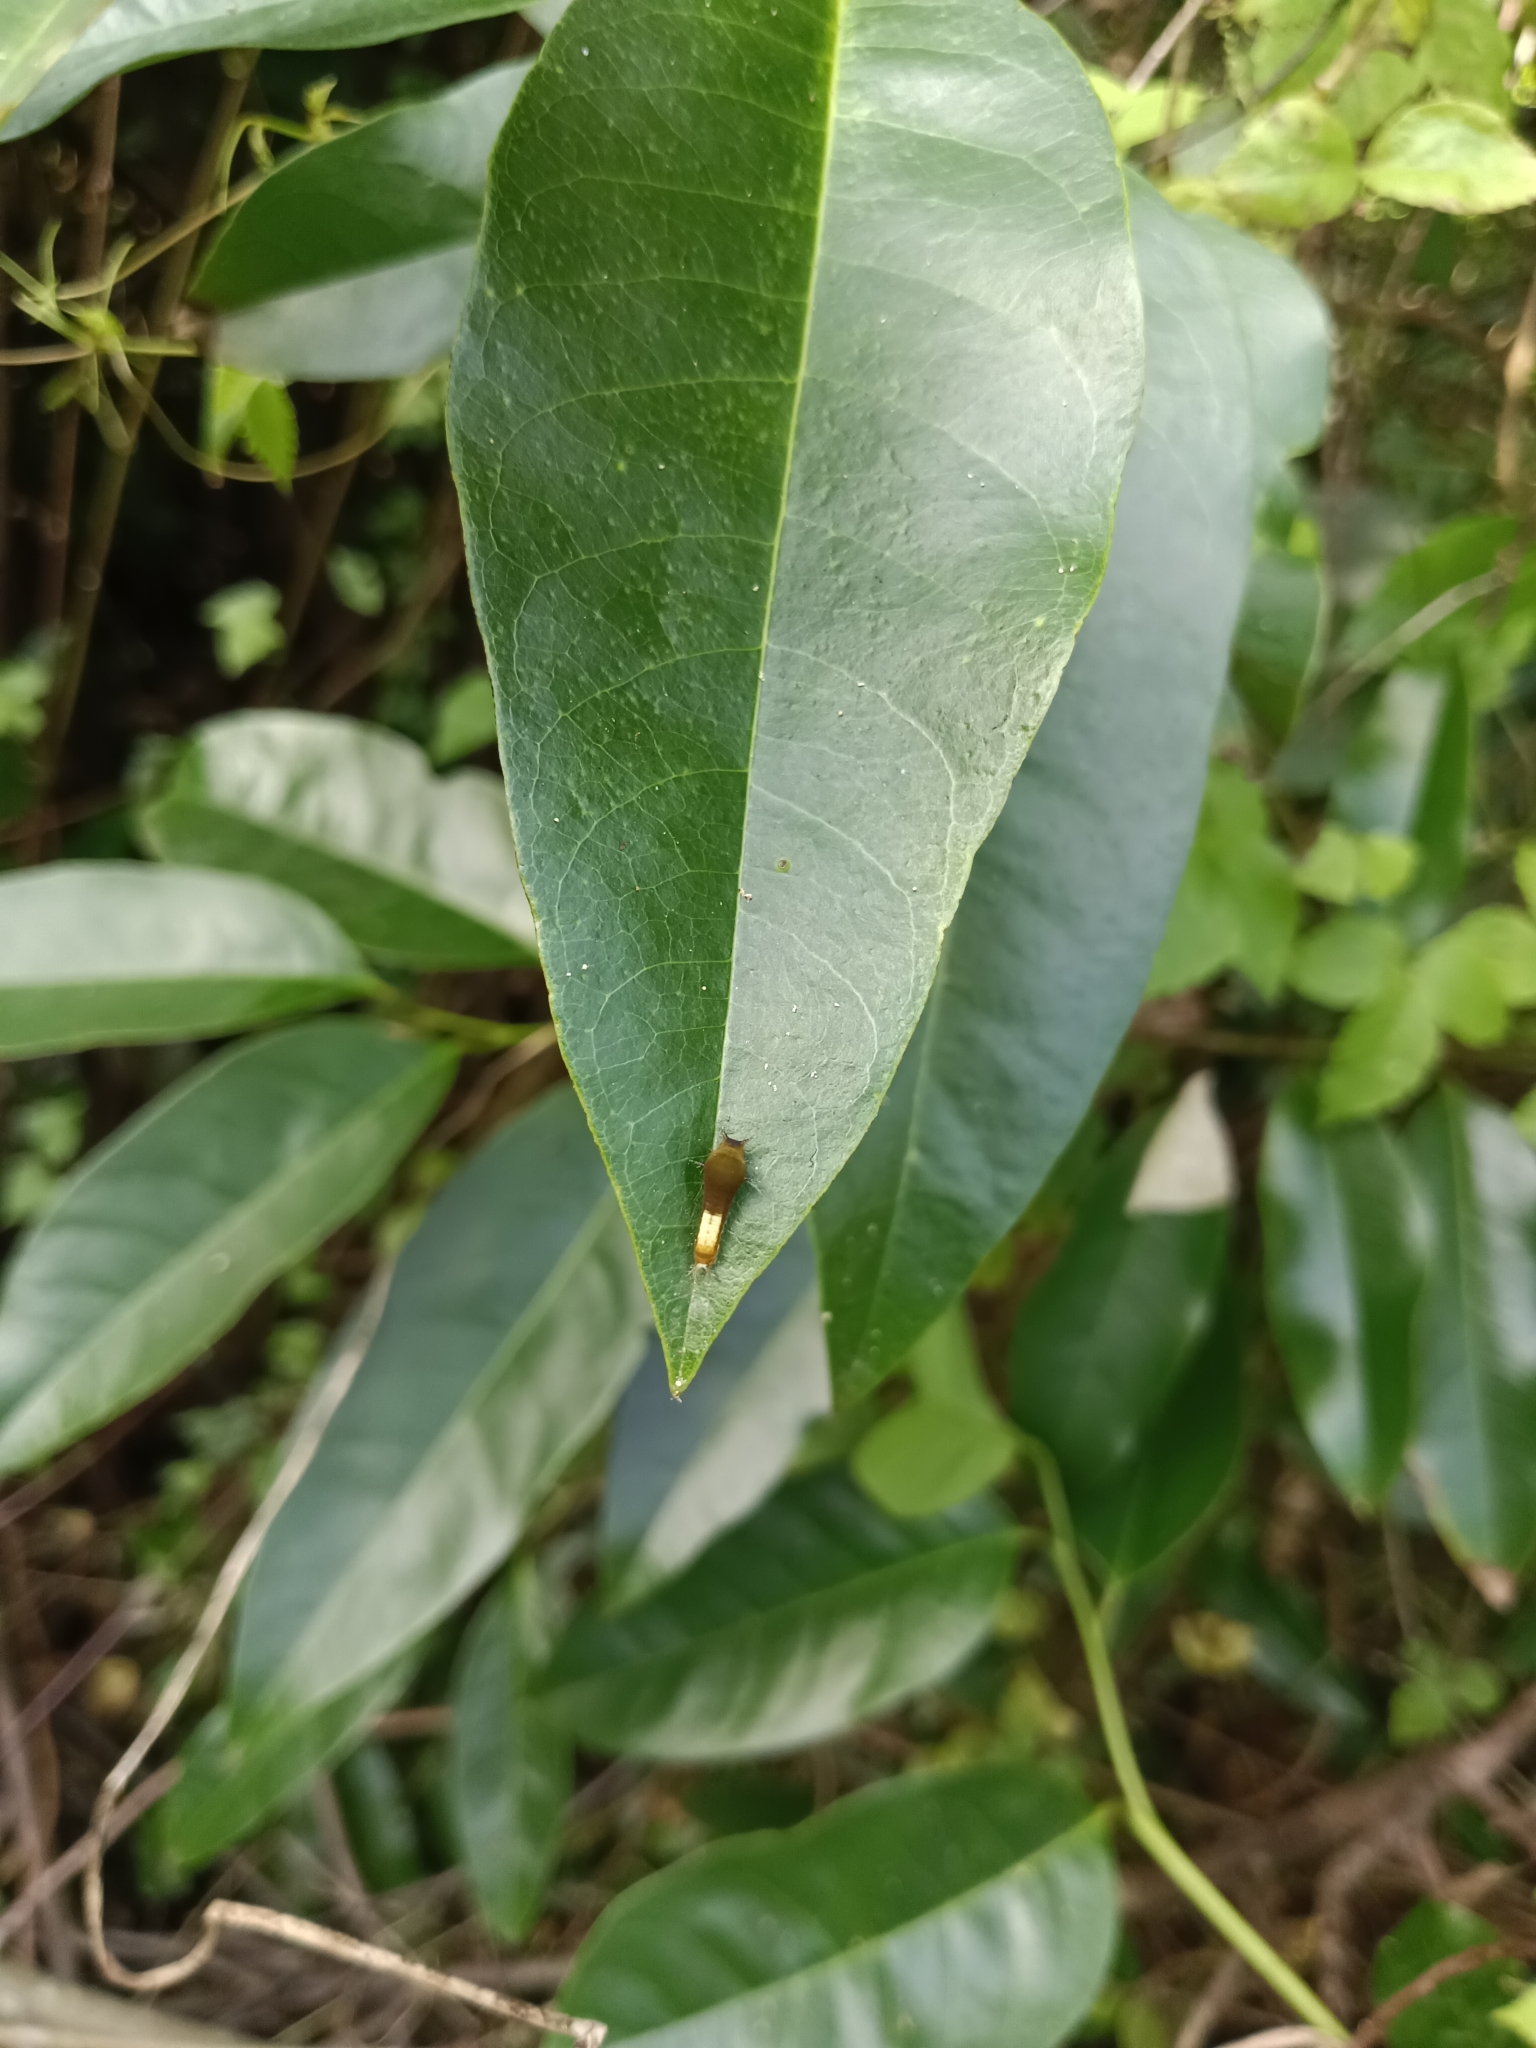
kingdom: Animalia
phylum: Arthropoda
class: Insecta
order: Lepidoptera
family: Papilionidae
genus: Graphium
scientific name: Graphium agamemnon
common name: Tailed jay
